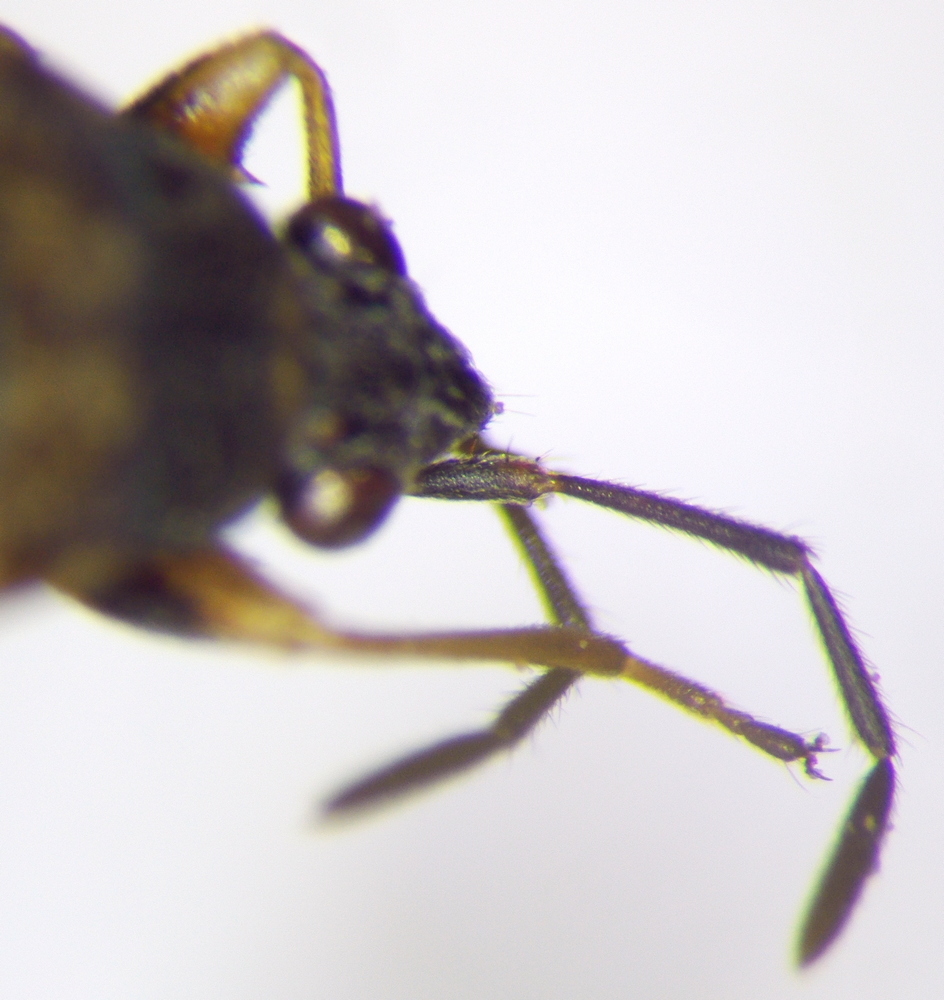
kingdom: Animalia
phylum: Arthropoda
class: Insecta
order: Hemiptera
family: Rhyparochromidae
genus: Peritrechus
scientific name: Peritrechus gracilicornis
